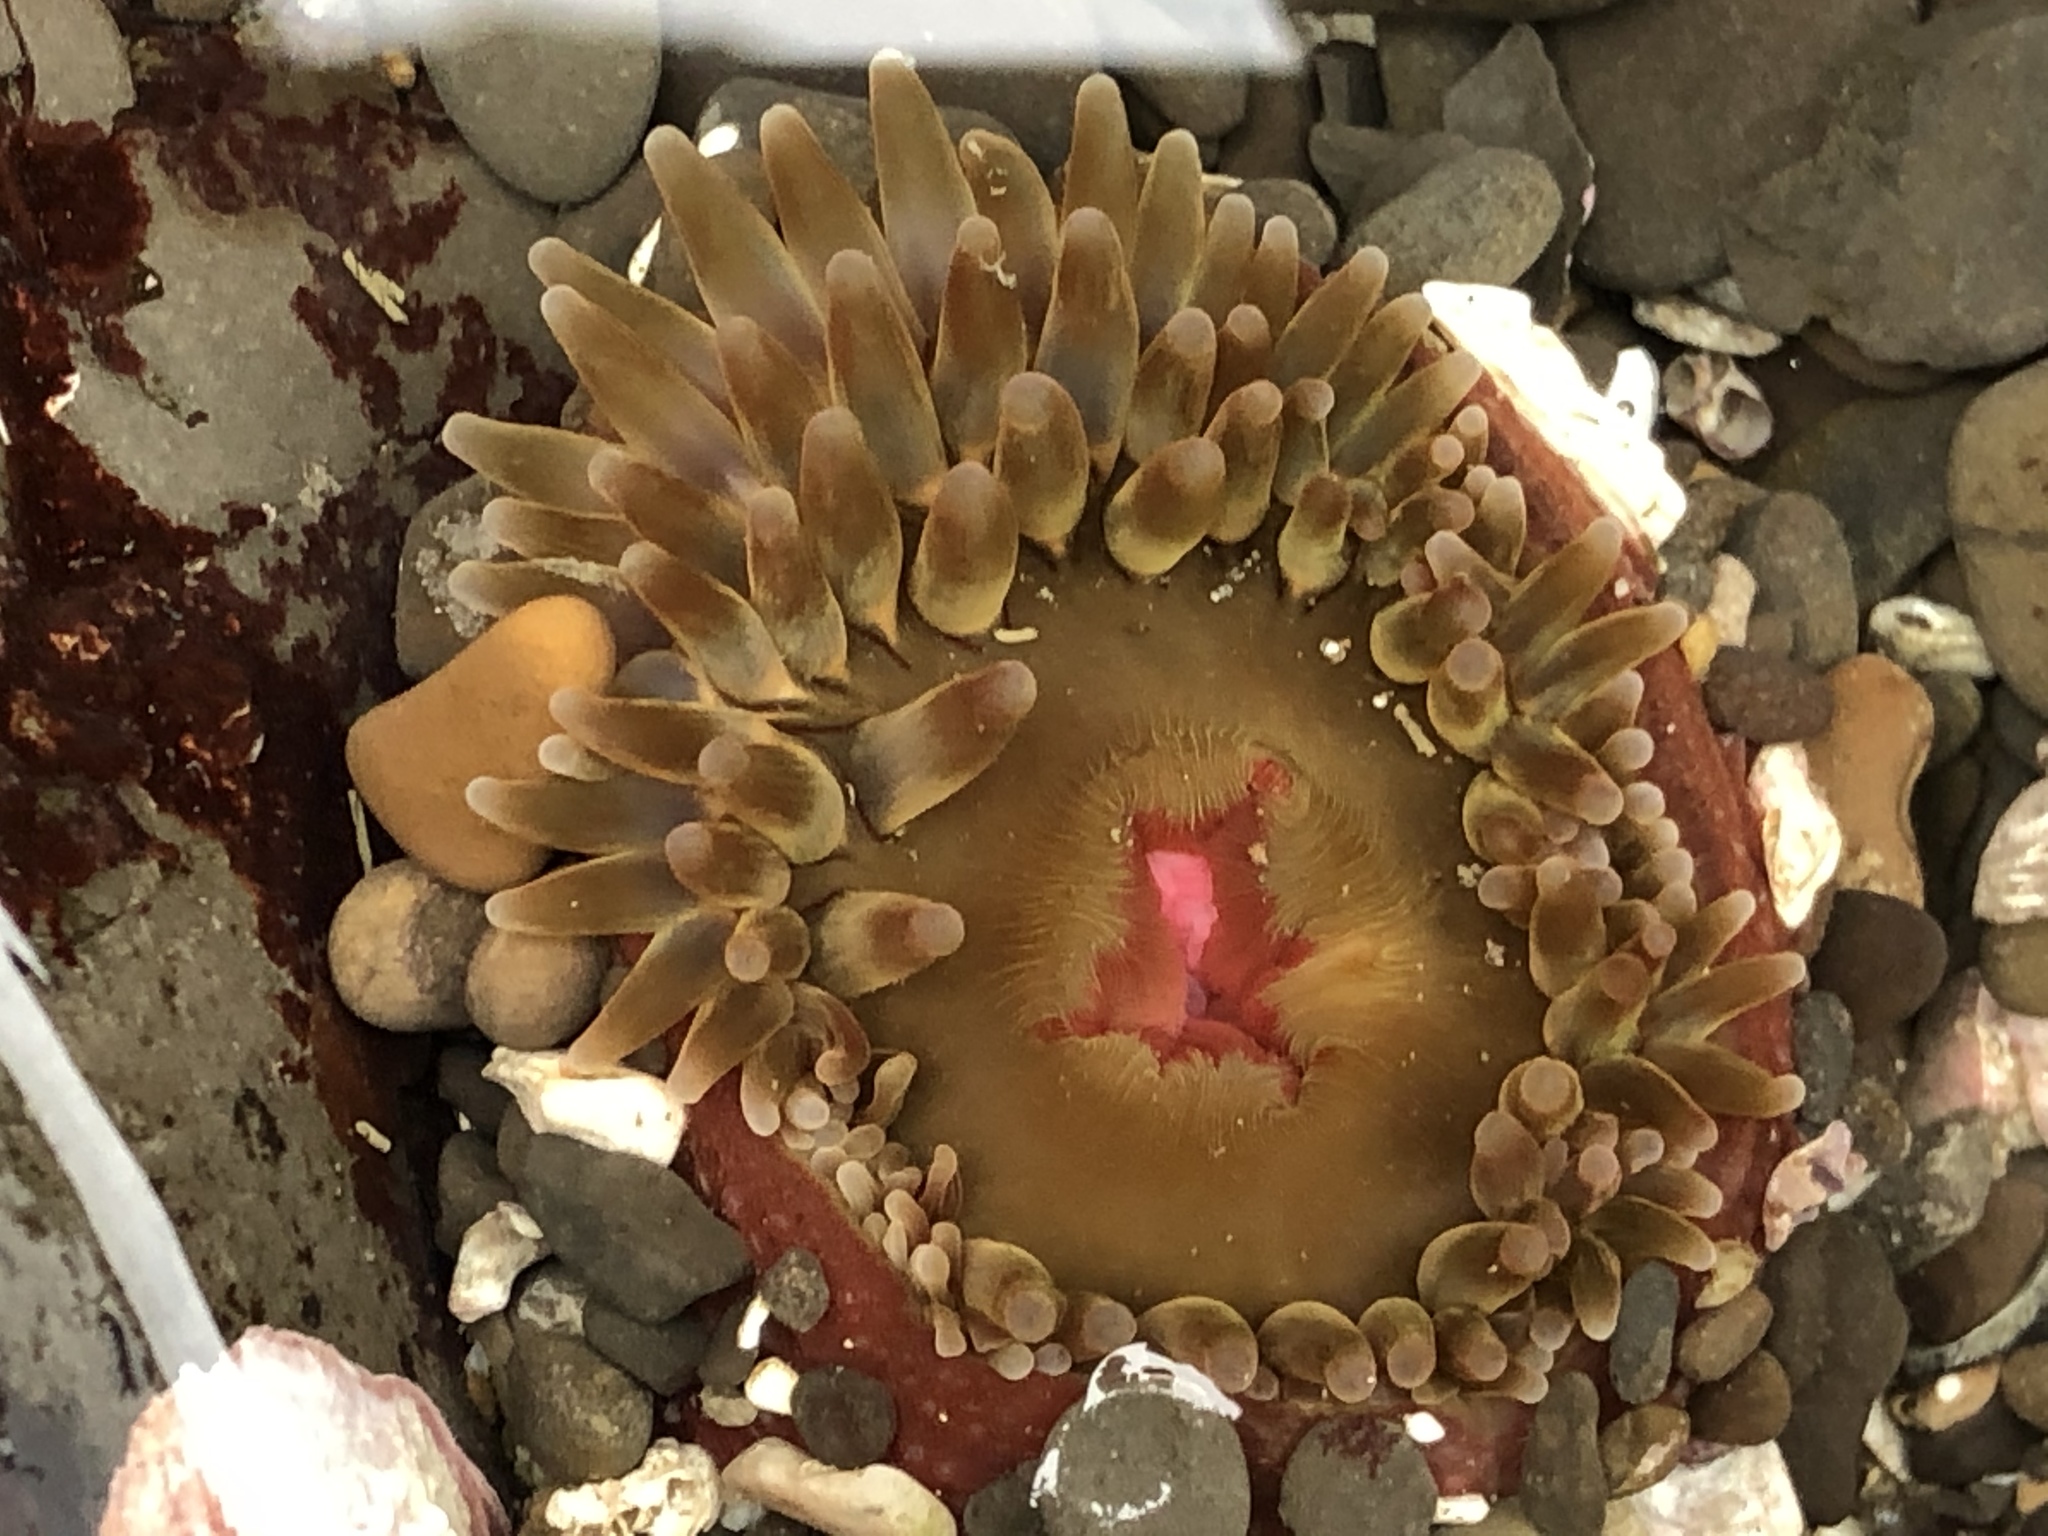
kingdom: Animalia
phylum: Cnidaria
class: Anthozoa
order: Actiniaria
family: Actiniidae
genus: Urticina
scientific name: Urticina clandestina
